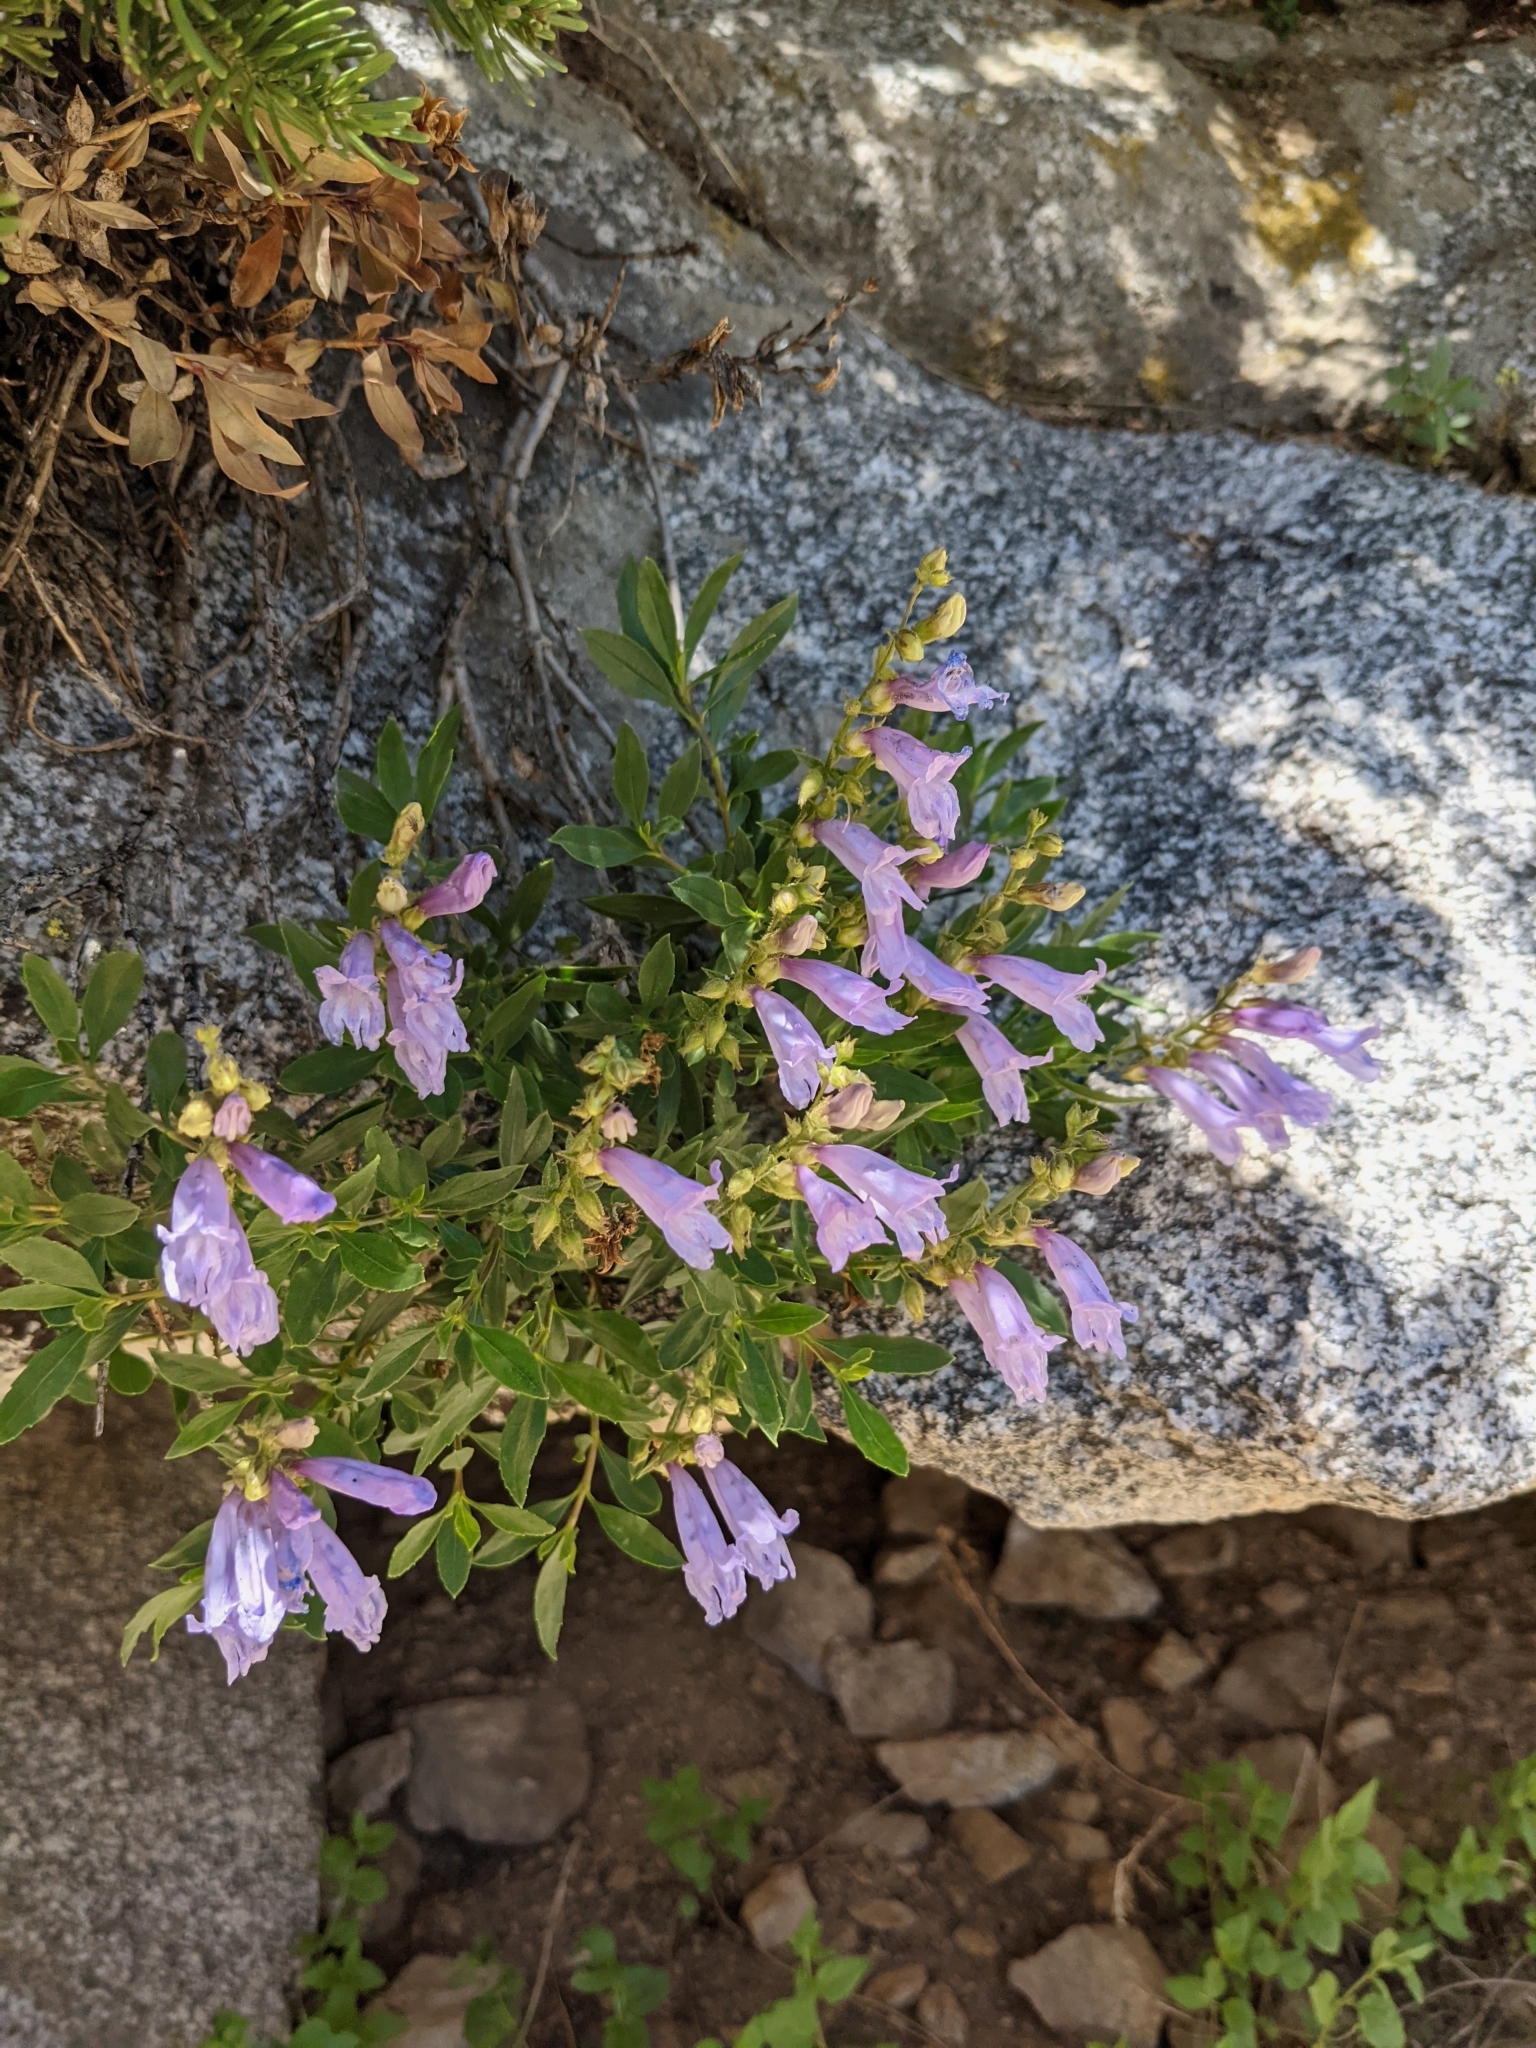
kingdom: Plantae
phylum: Tracheophyta
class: Magnoliopsida
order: Lamiales
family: Plantaginaceae
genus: Penstemon
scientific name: Penstemon fruticosus
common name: Bush penstemon
